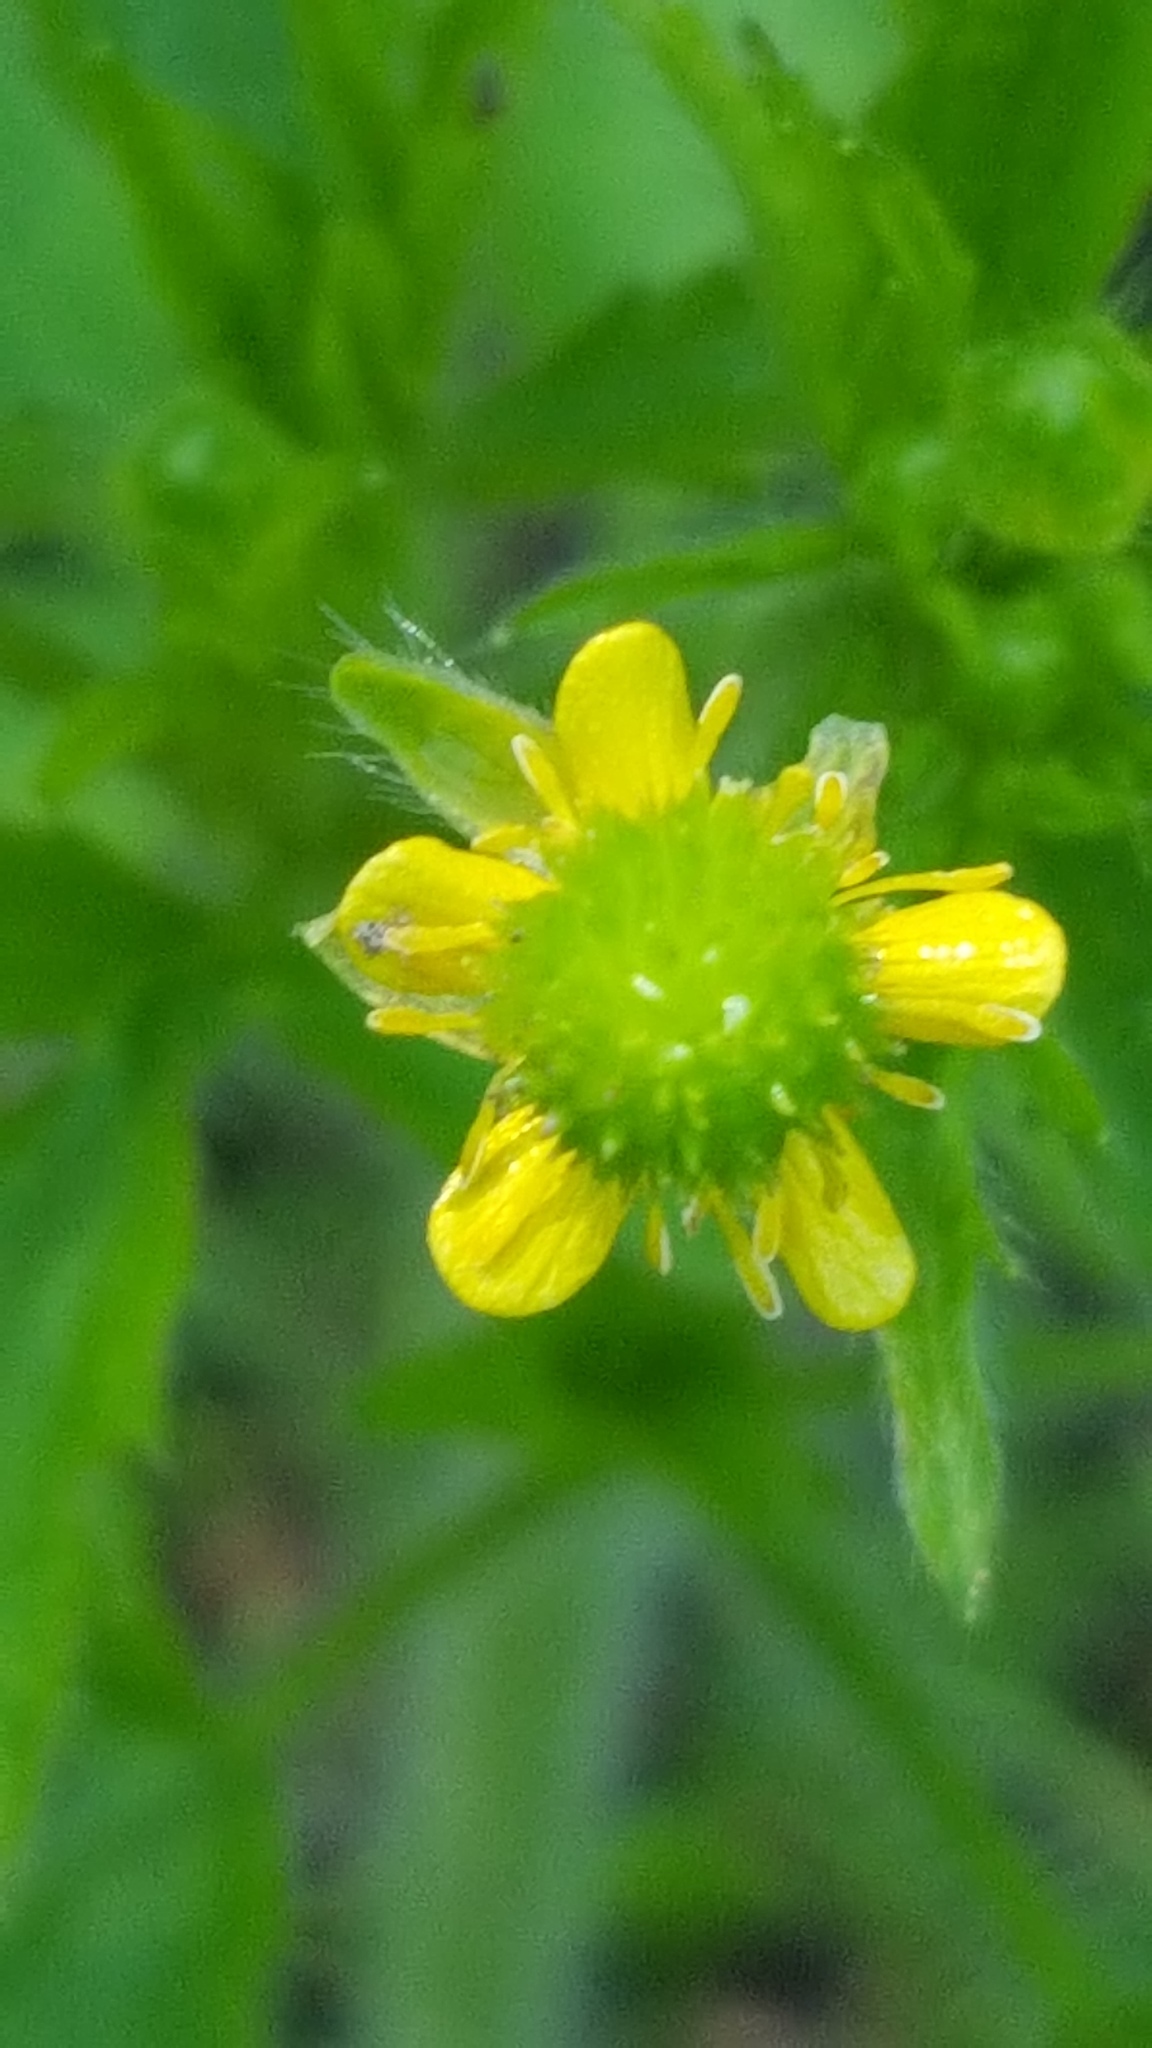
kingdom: Plantae
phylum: Tracheophyta
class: Magnoliopsida
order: Ranunculales
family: Ranunculaceae
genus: Ranunculus
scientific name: Ranunculus pensylvanicus
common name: Bristly buttercup
